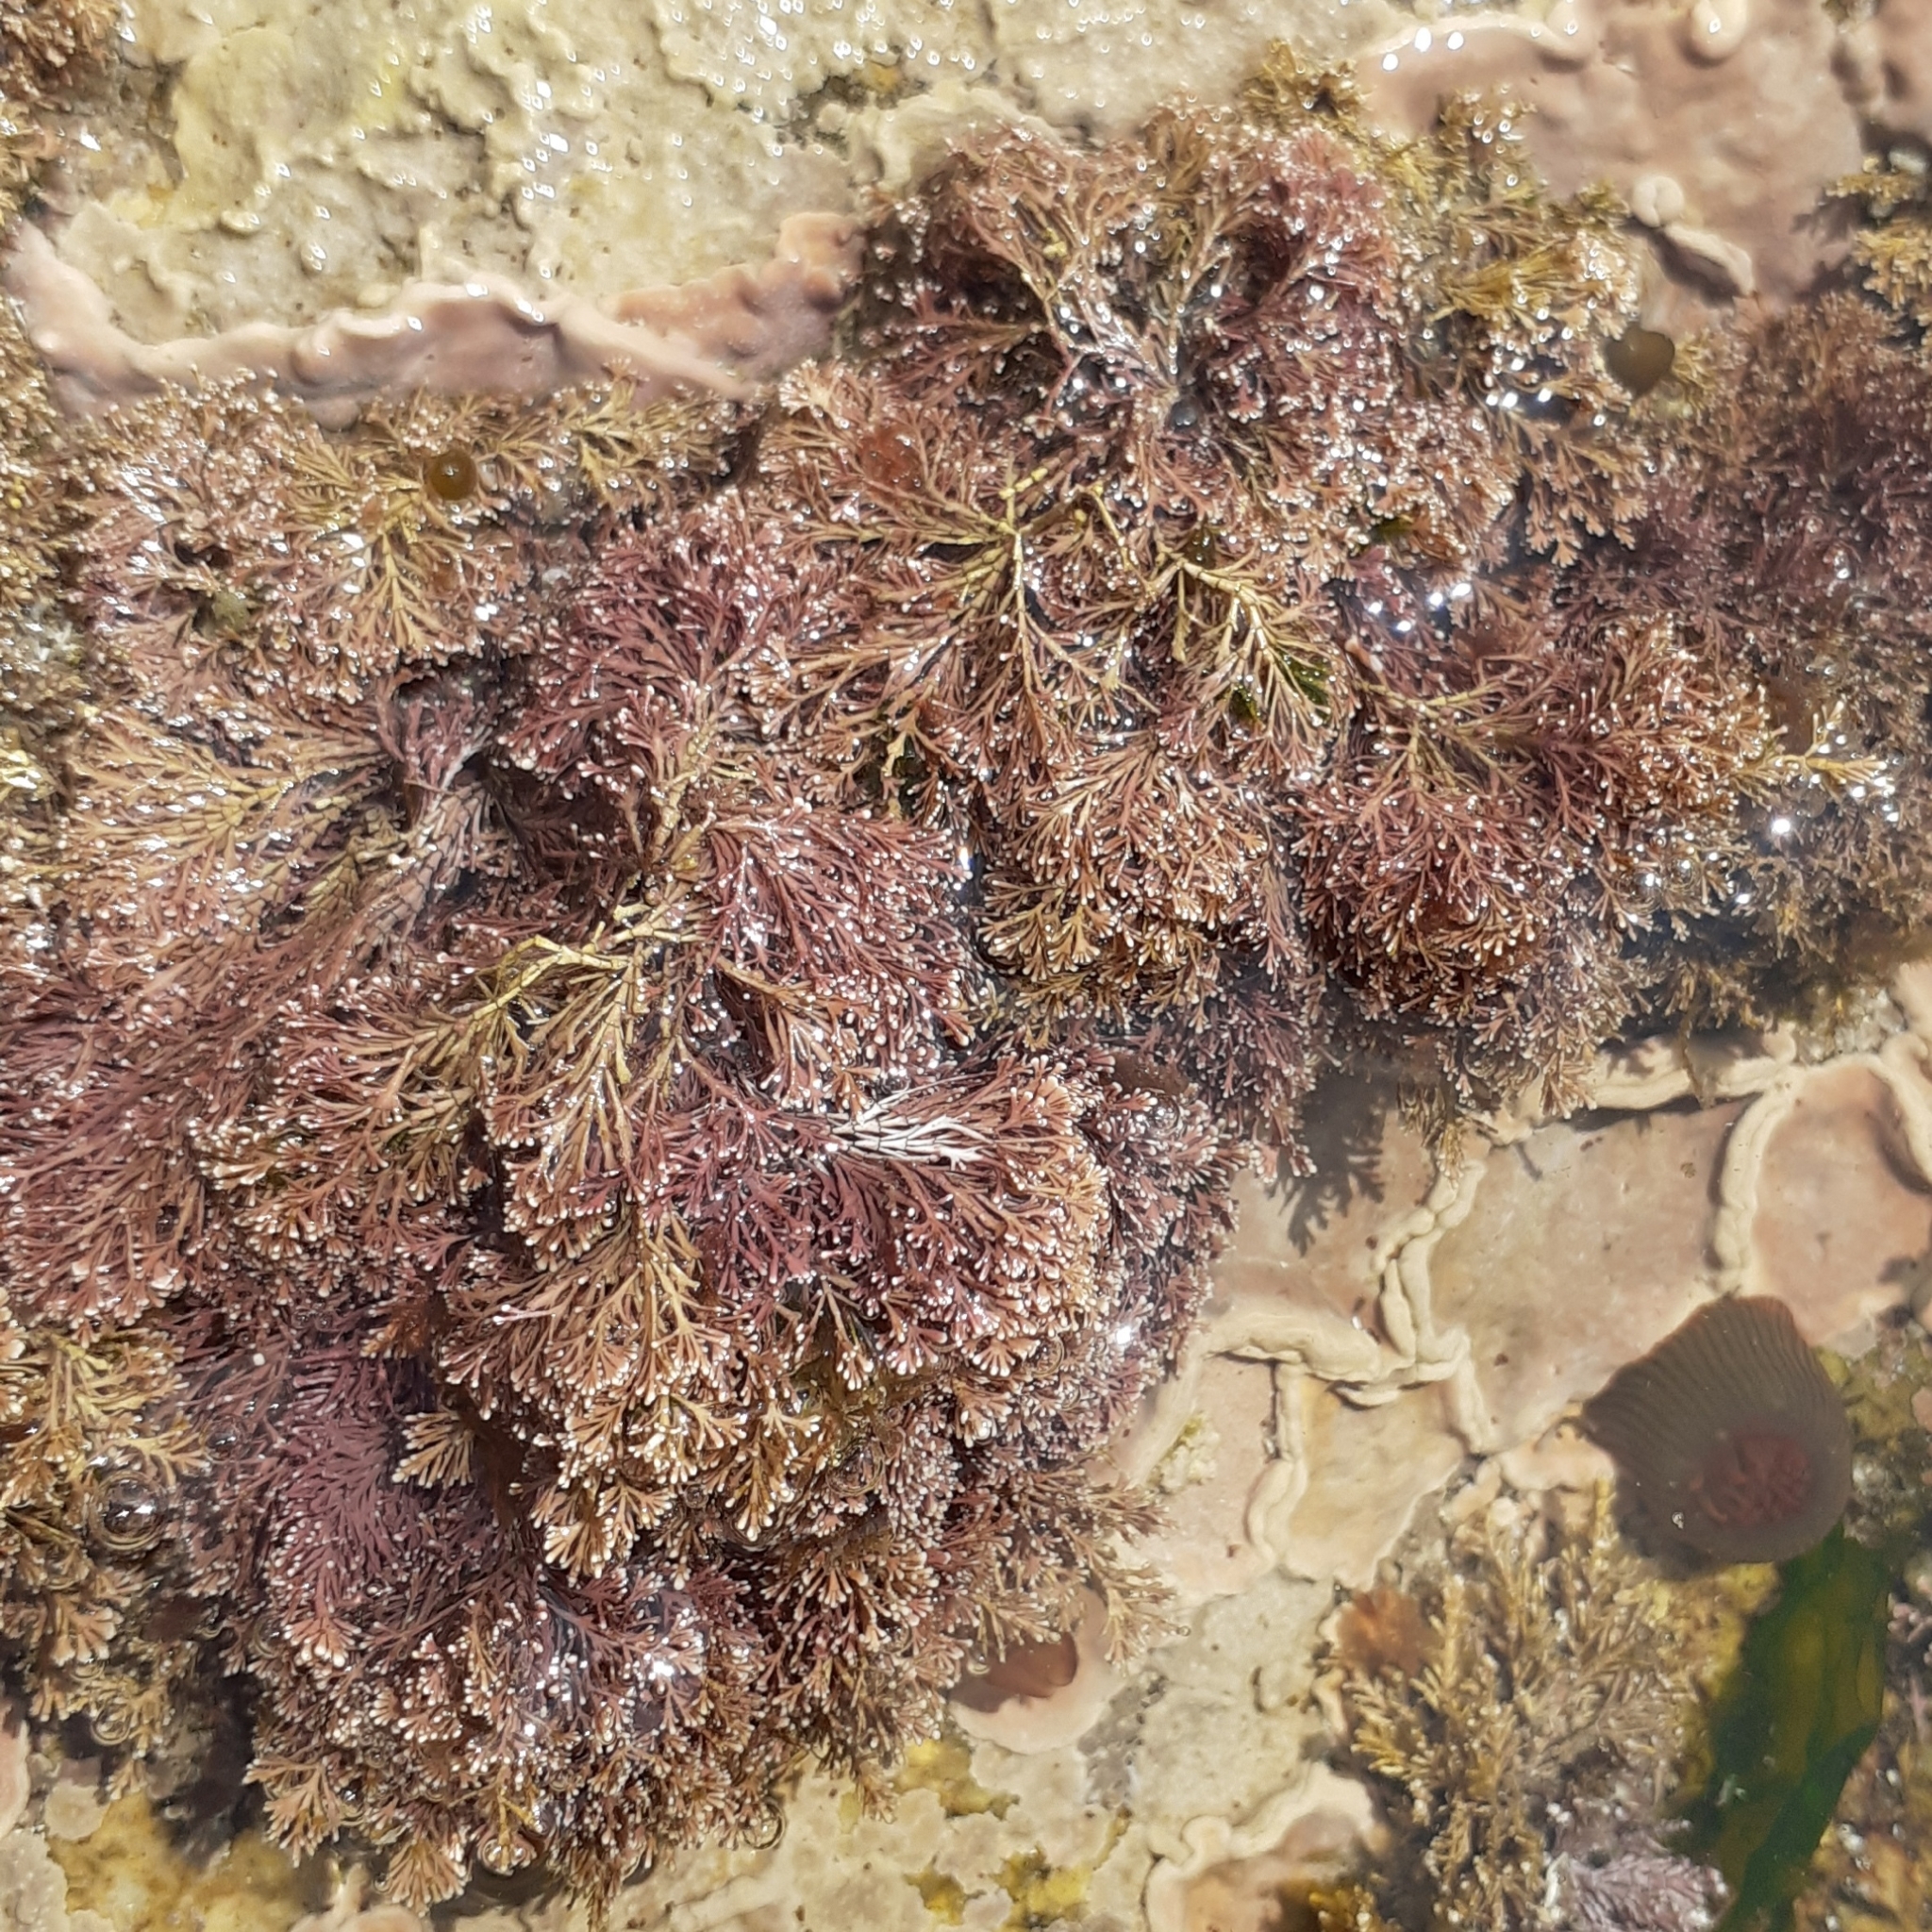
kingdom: Plantae
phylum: Rhodophyta
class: Florideophyceae
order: Corallinales
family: Corallinaceae
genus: Corallina
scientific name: Corallina officinalis
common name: Coral weed
